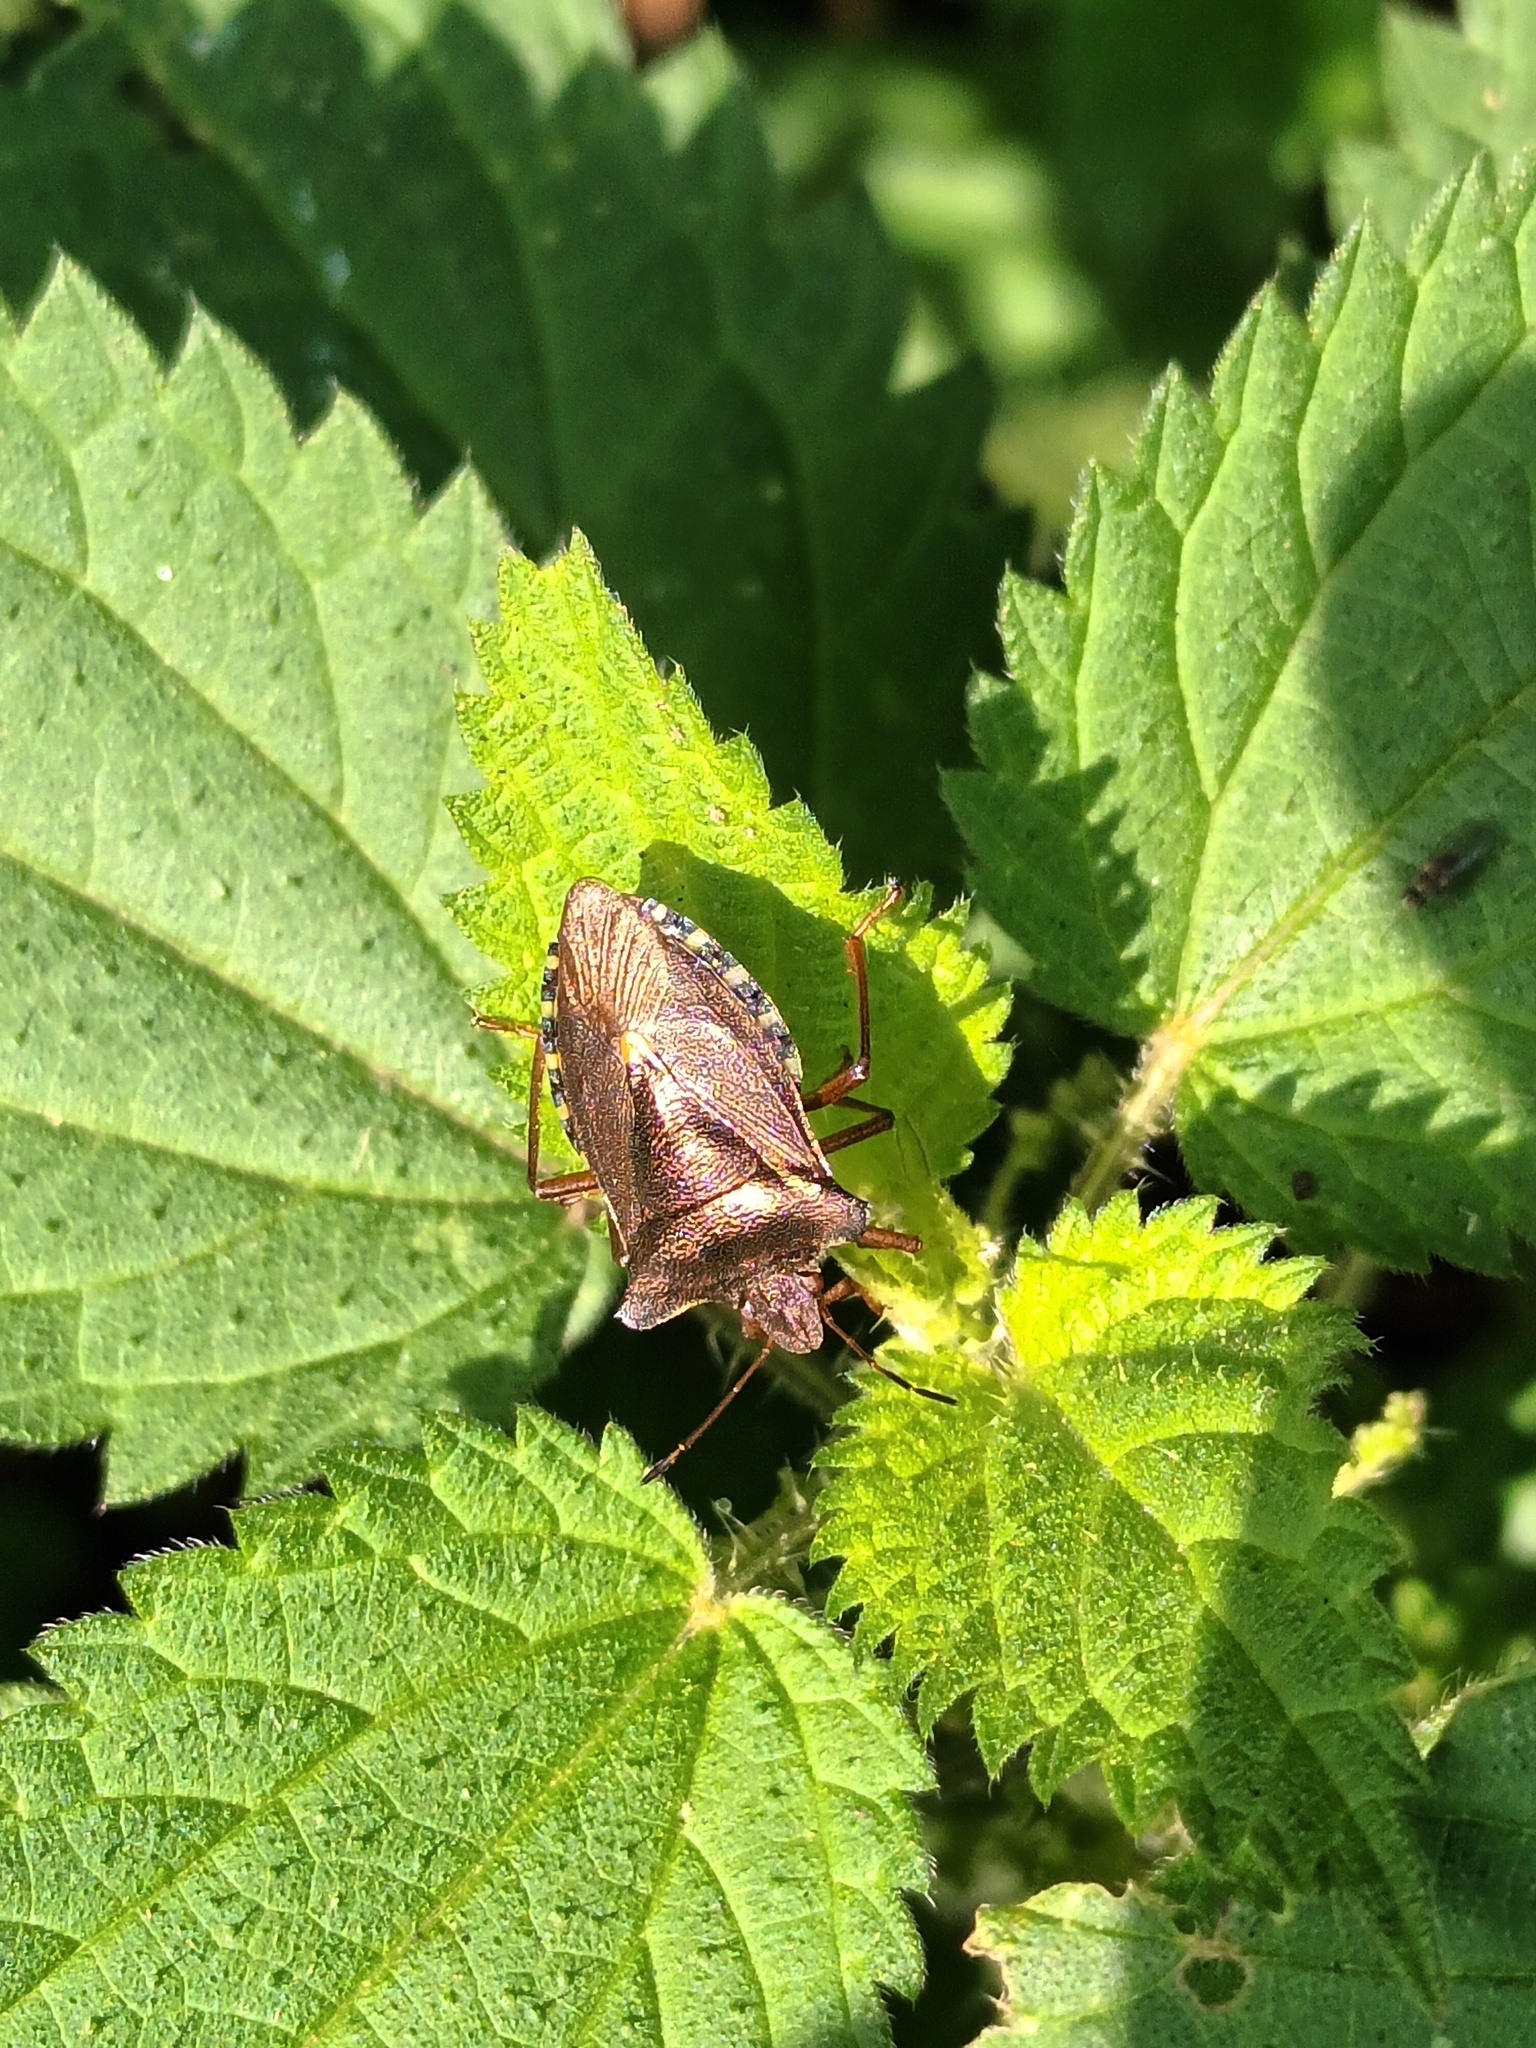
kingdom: Animalia
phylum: Arthropoda
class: Insecta
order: Hemiptera
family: Pentatomidae
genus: Pentatoma
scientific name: Pentatoma rufipes
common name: Forest bug
